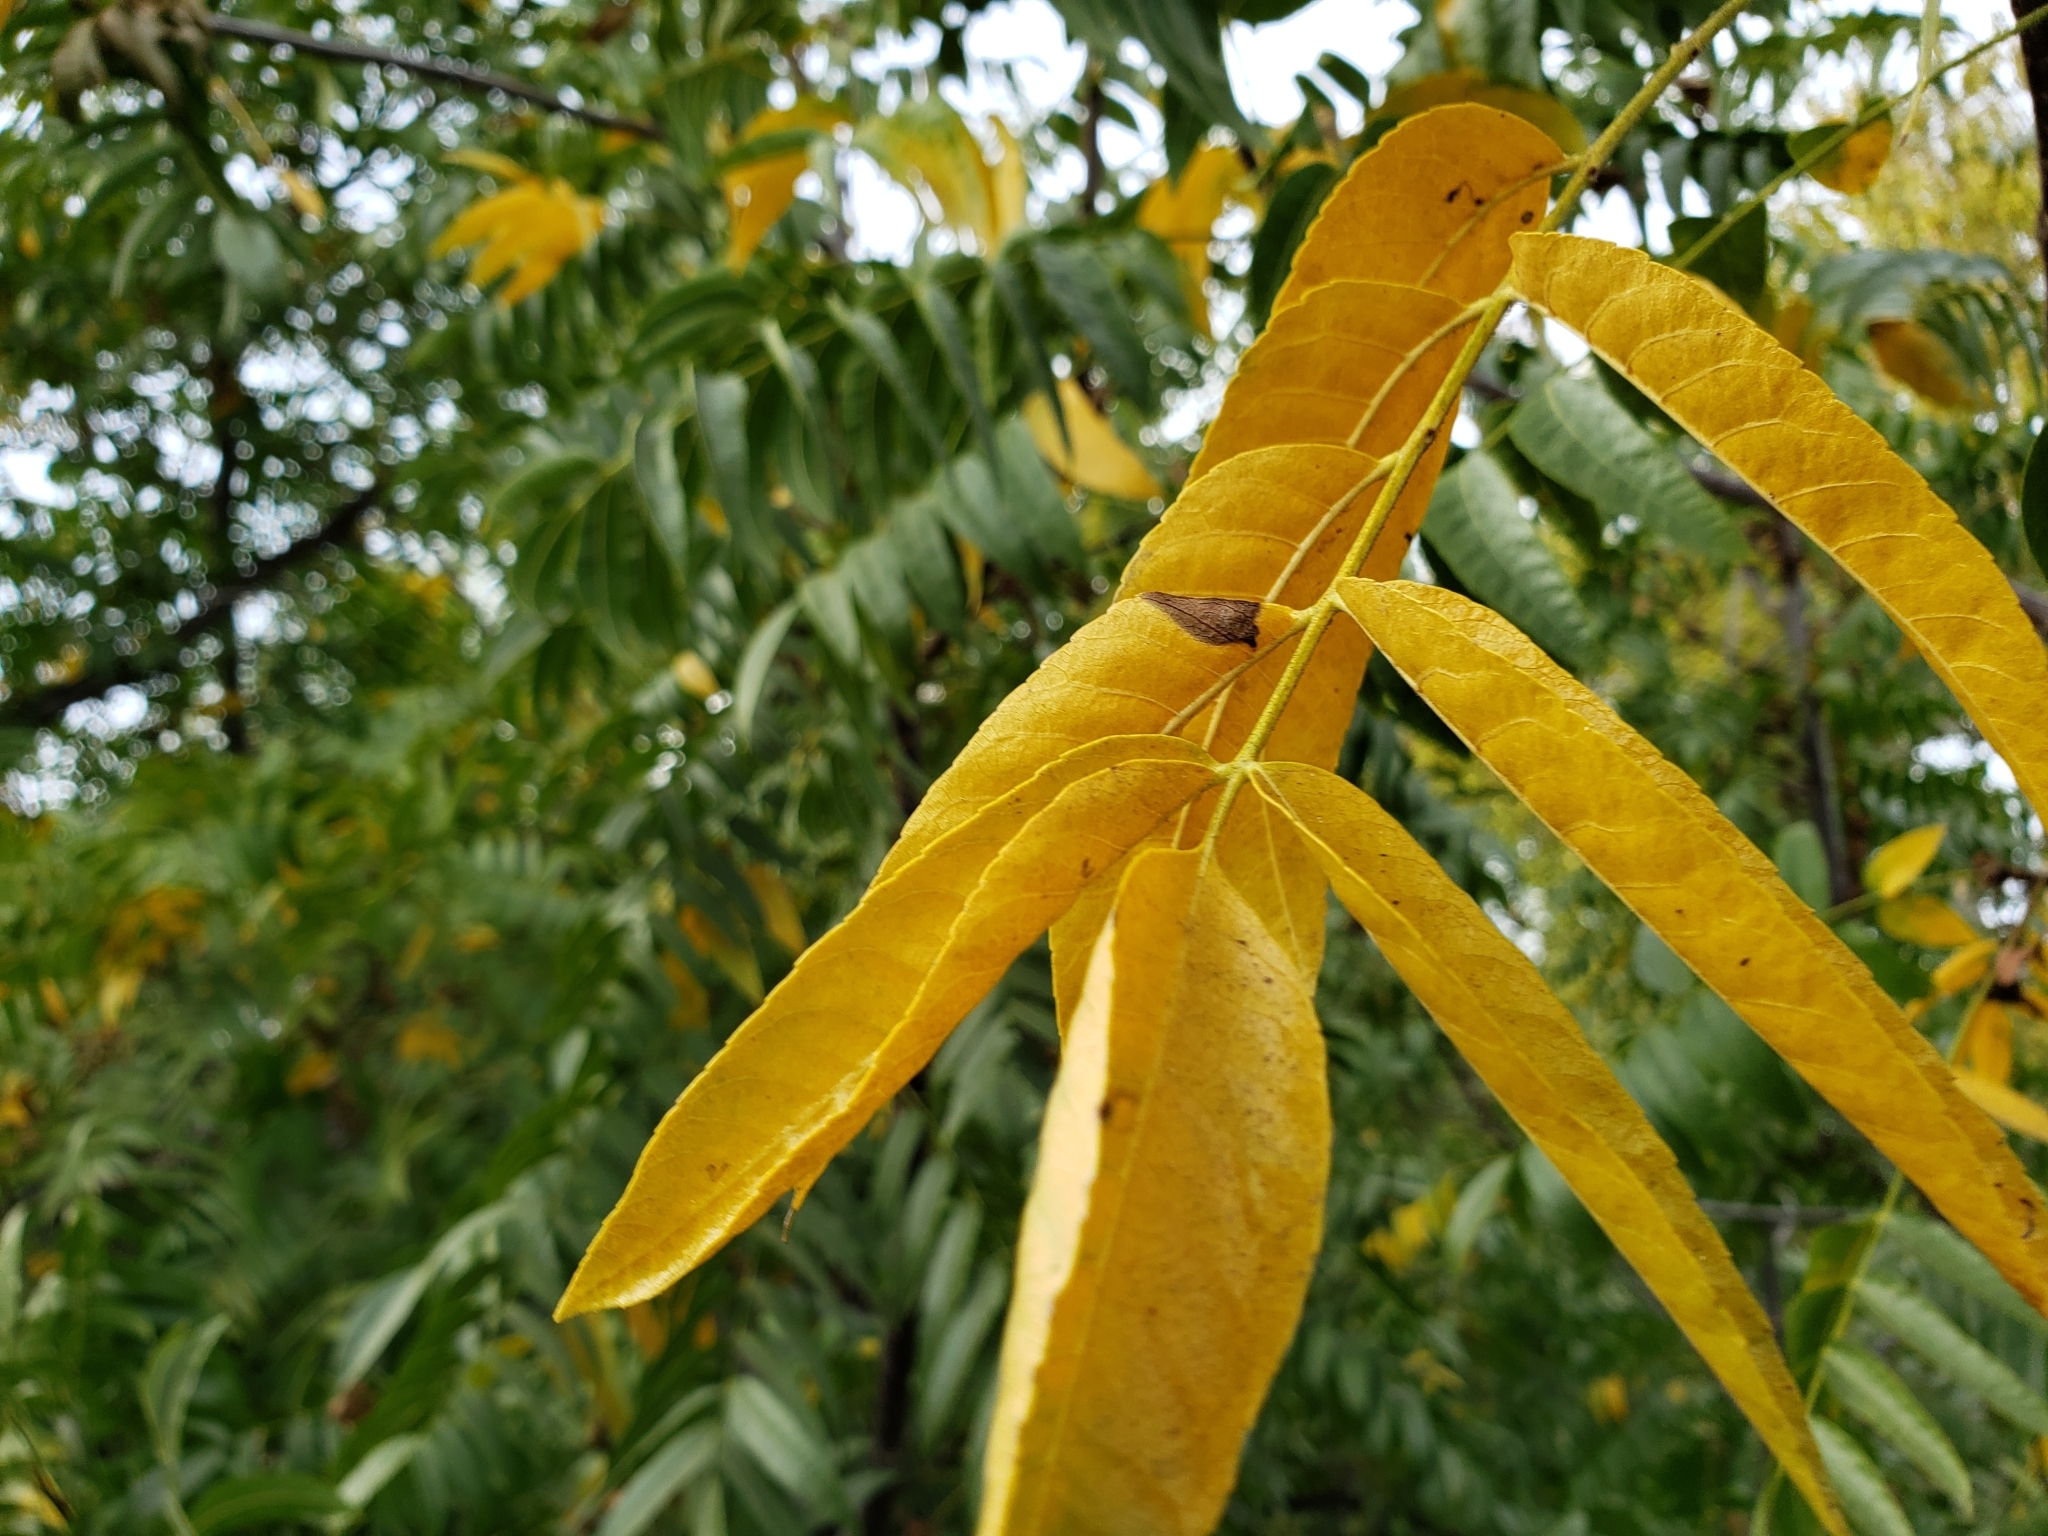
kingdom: Plantae
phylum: Tracheophyta
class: Magnoliopsida
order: Fagales
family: Juglandaceae
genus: Juglans
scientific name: Juglans hindsii
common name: Northern california black walnut
